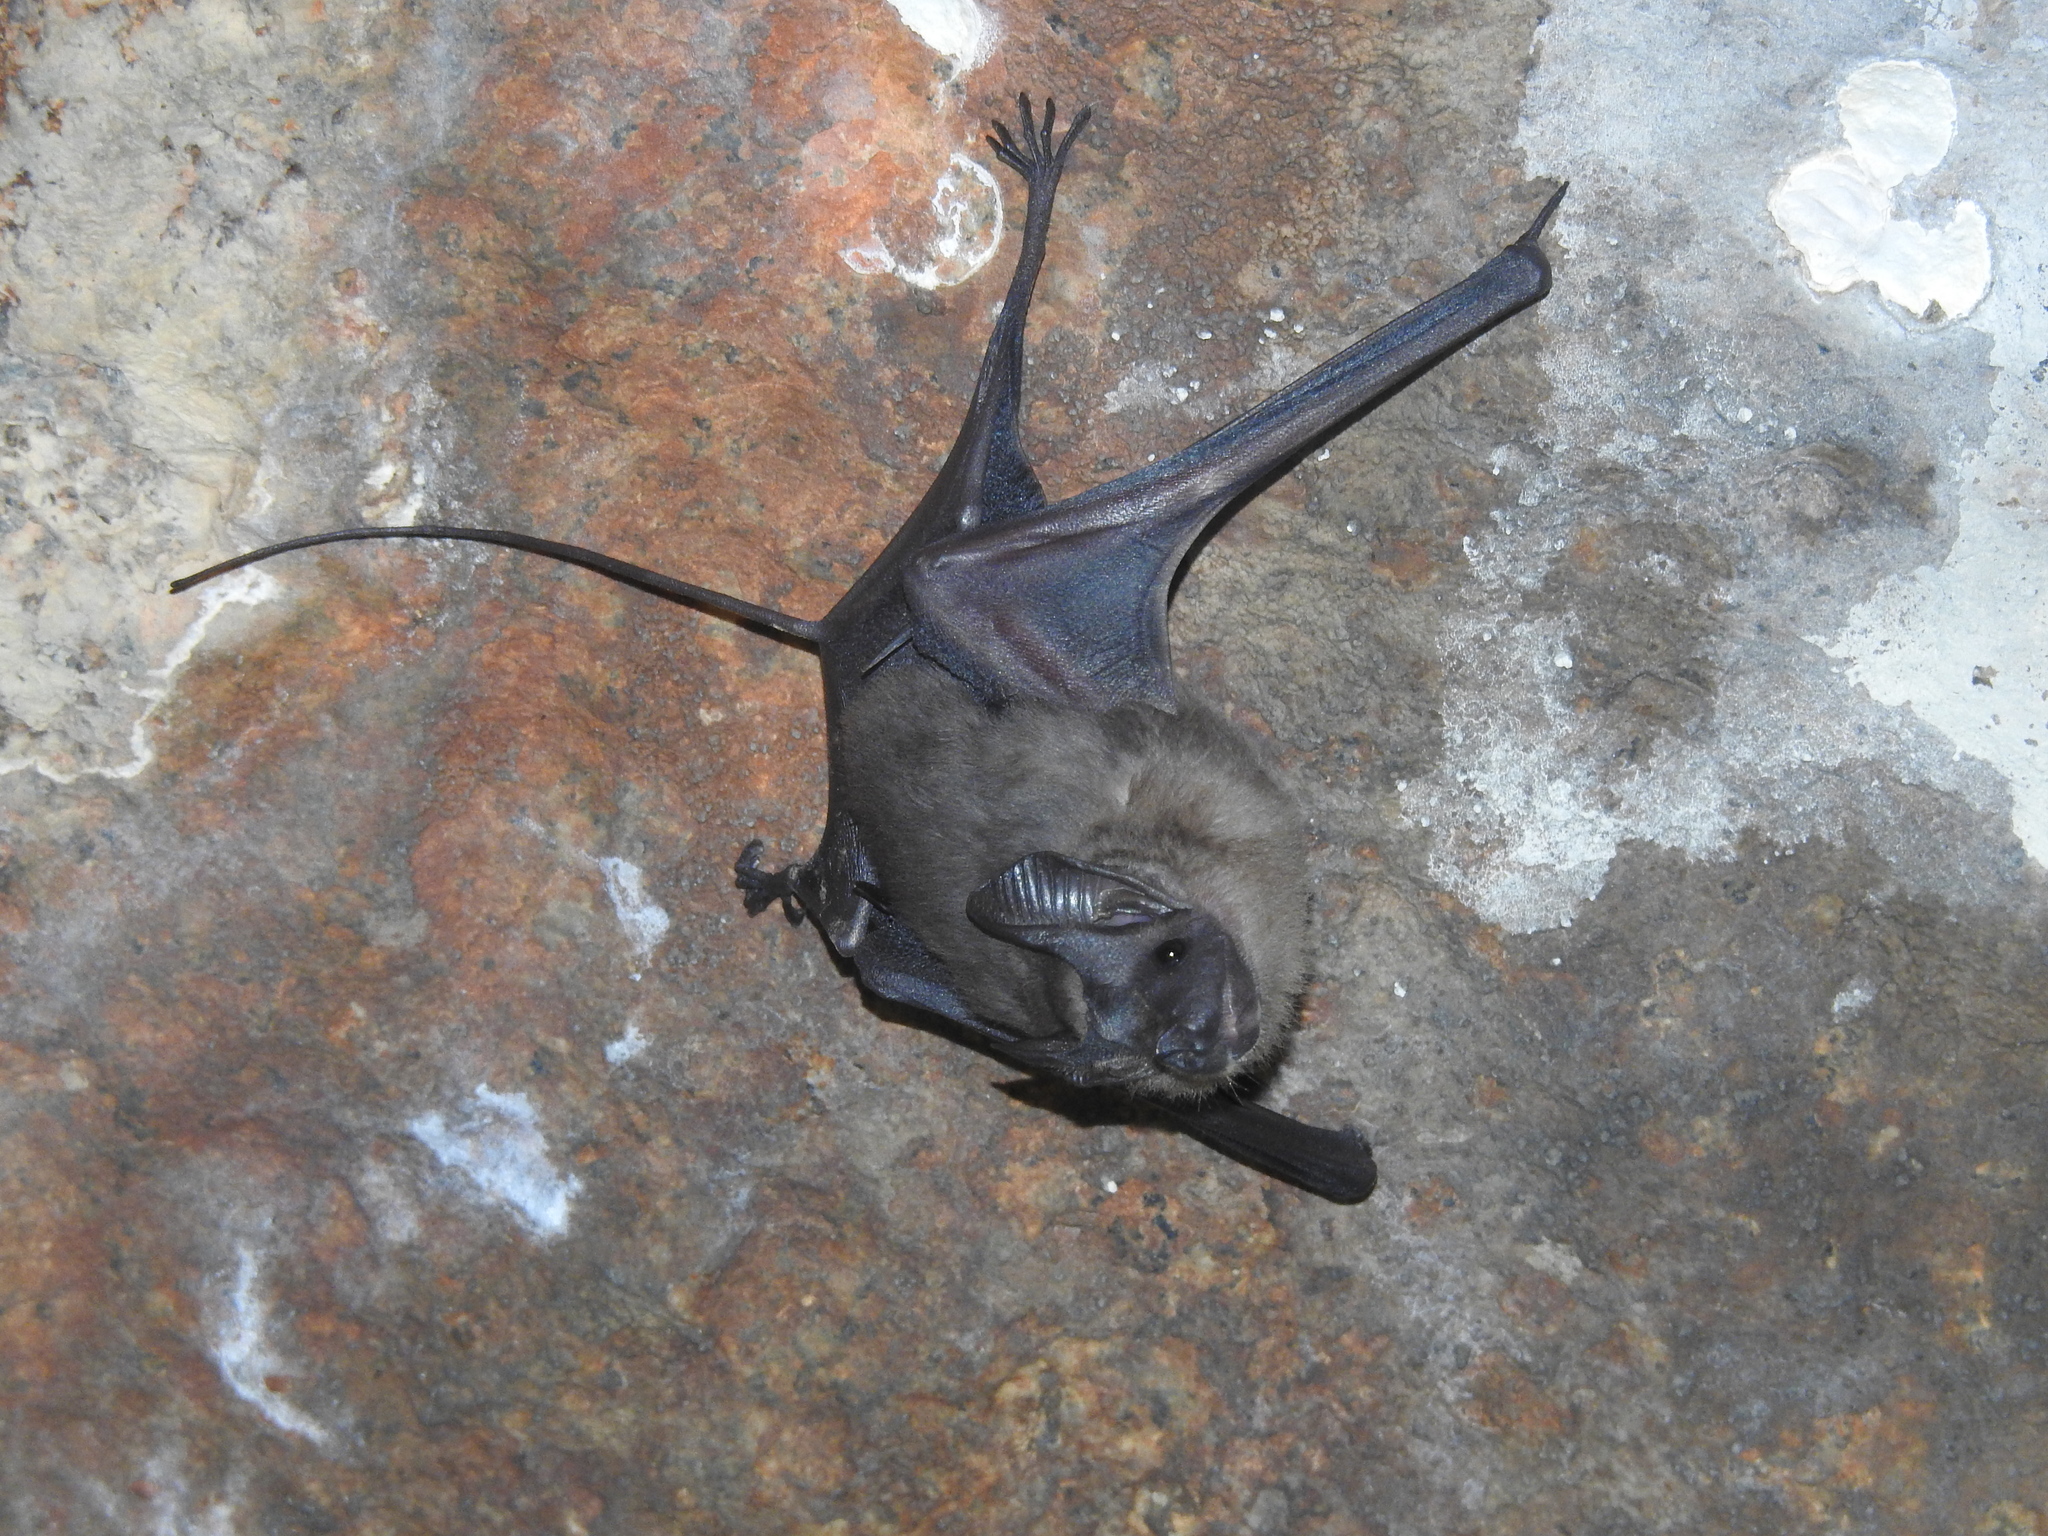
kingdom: Animalia
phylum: Chordata
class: Mammalia
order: Chiroptera
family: Rhinopomatidae
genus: Rhinopoma
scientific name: Rhinopoma hardwickii
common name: Lesser mouse-tailed bat
